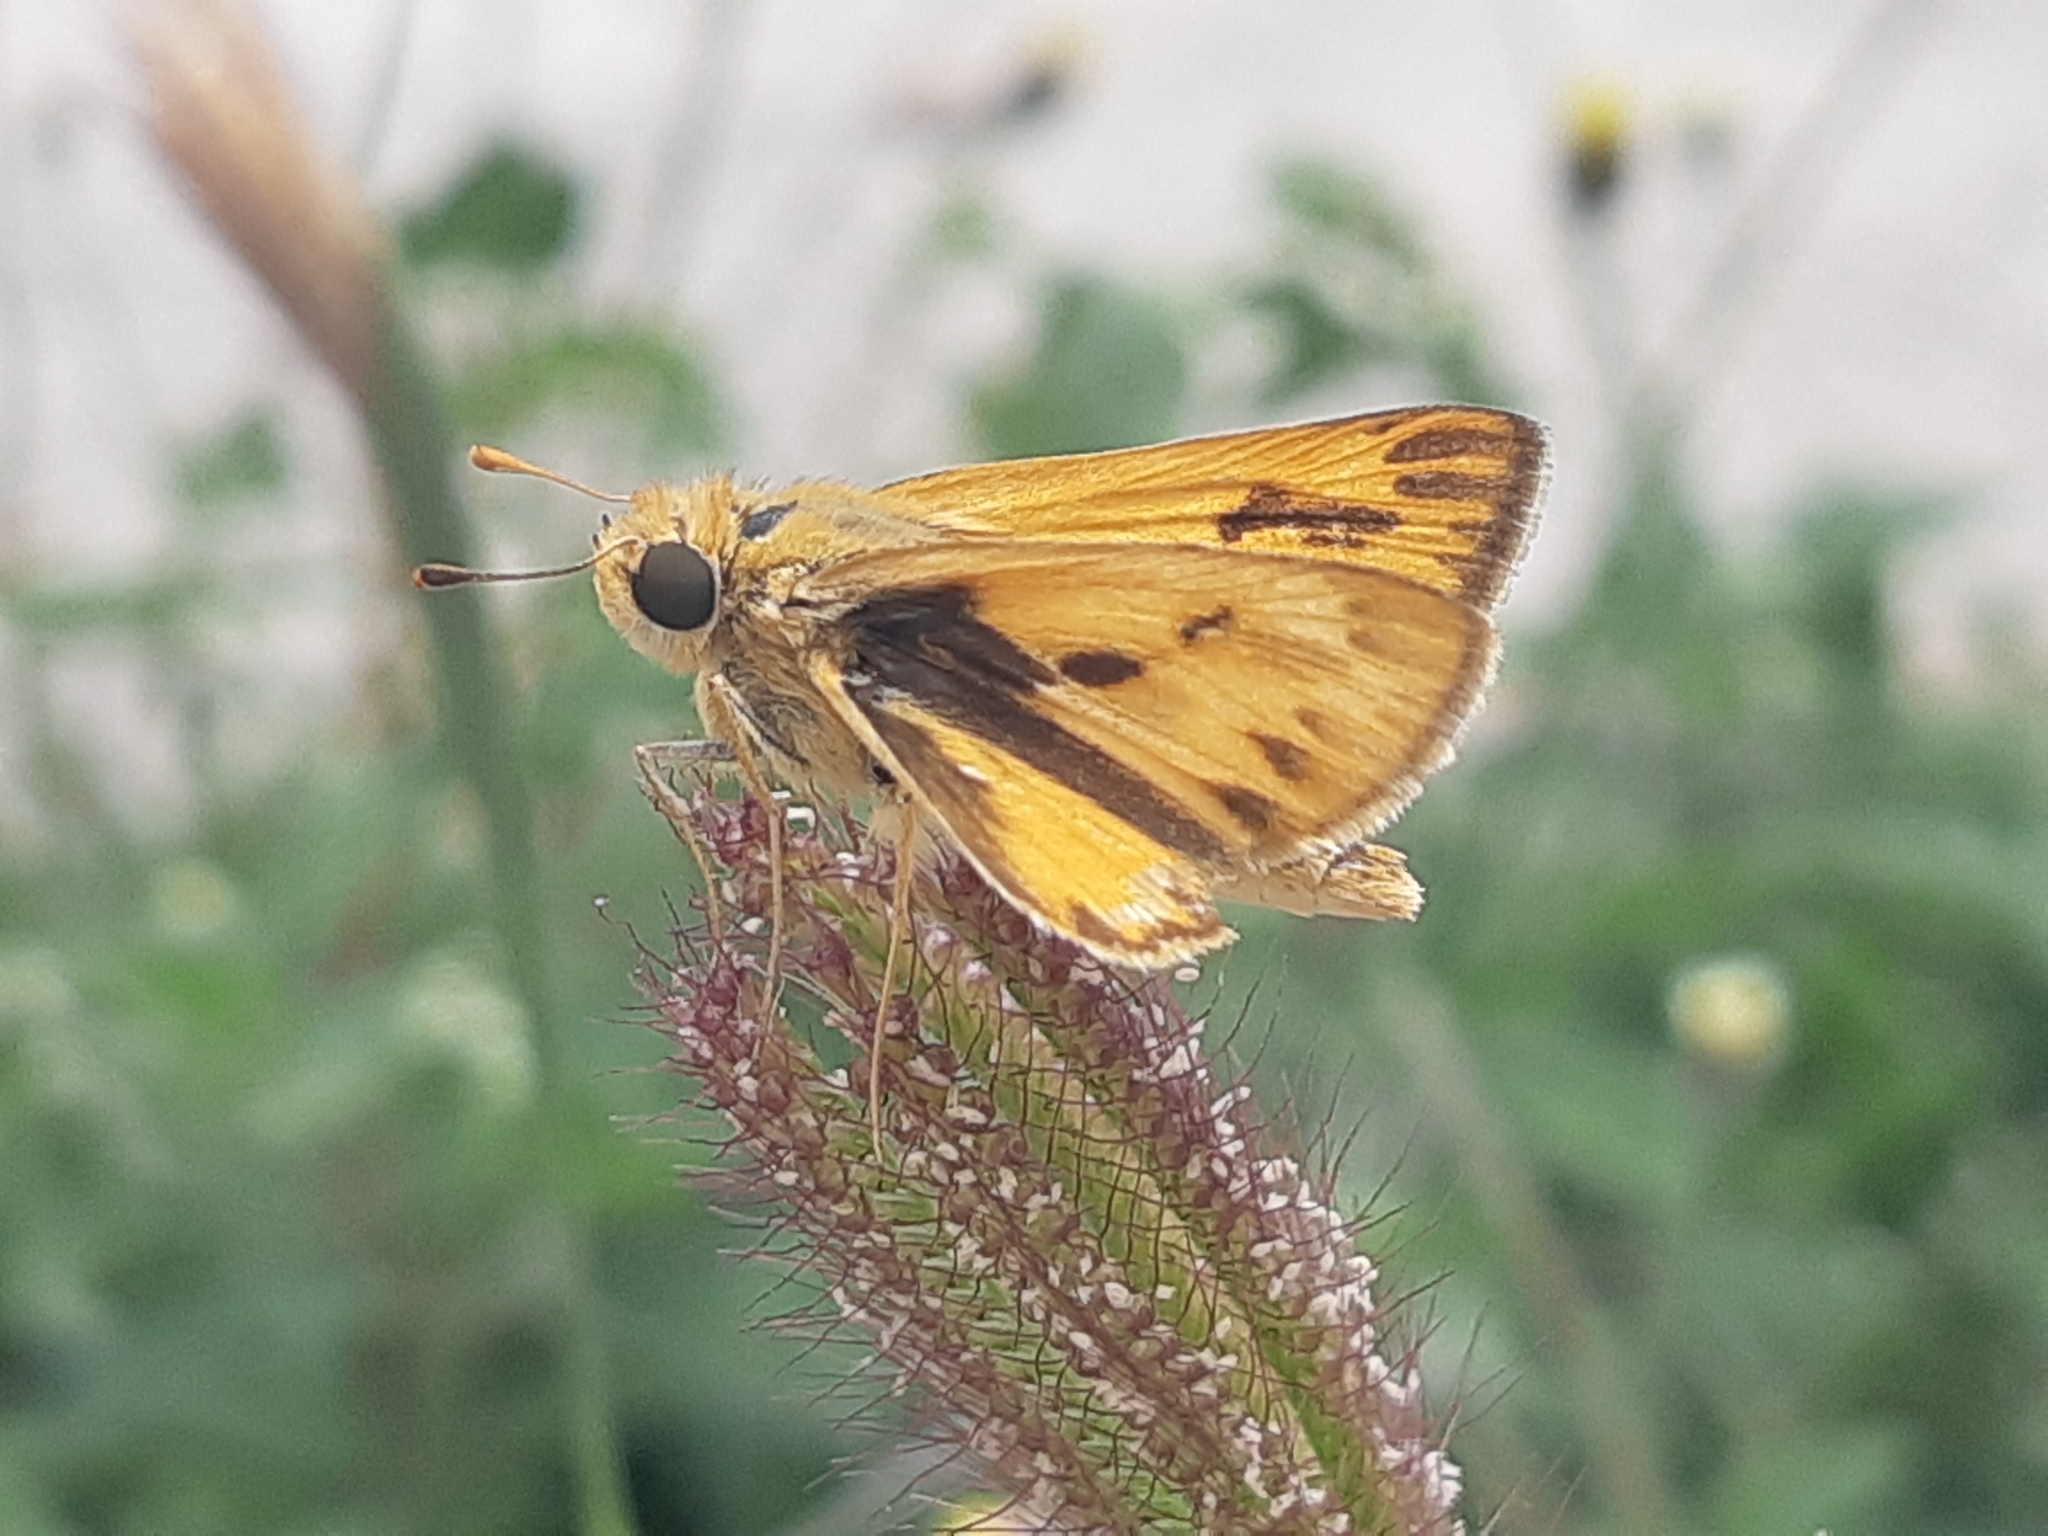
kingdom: Animalia
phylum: Arthropoda
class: Insecta
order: Lepidoptera
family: Hesperiidae
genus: Hylephila
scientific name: Hylephila phyleus
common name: Fiery skipper
